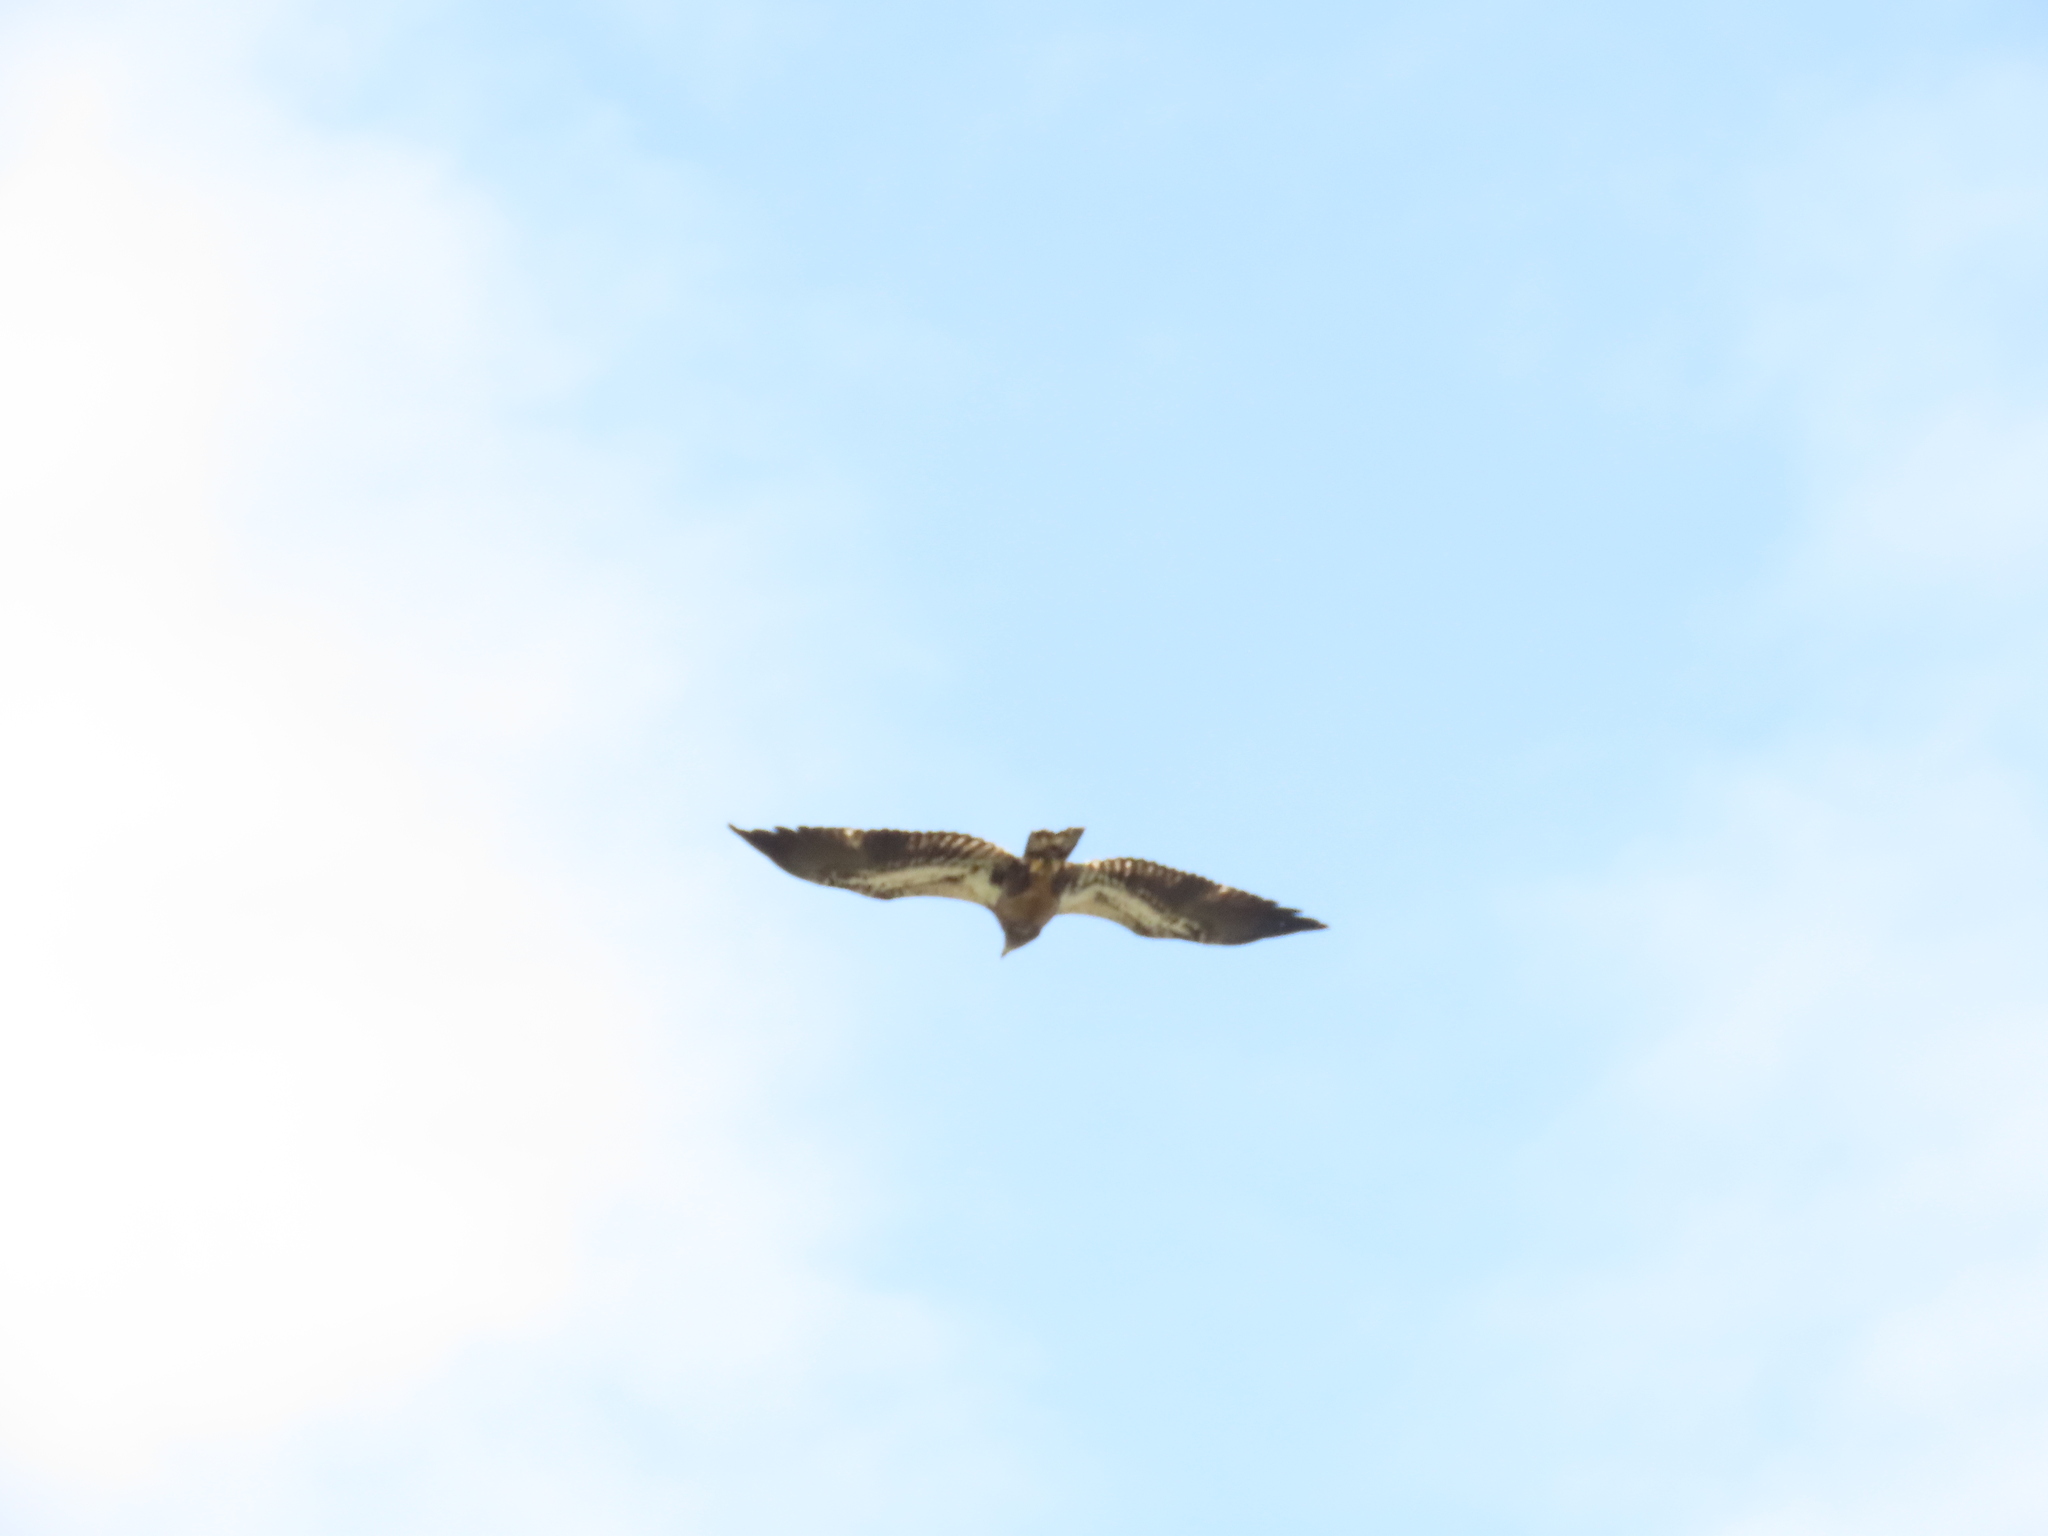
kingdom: Animalia
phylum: Chordata
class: Aves
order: Accipitriformes
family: Accipitridae
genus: Haliaeetus
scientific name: Haliaeetus leucocephalus
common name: Bald eagle
